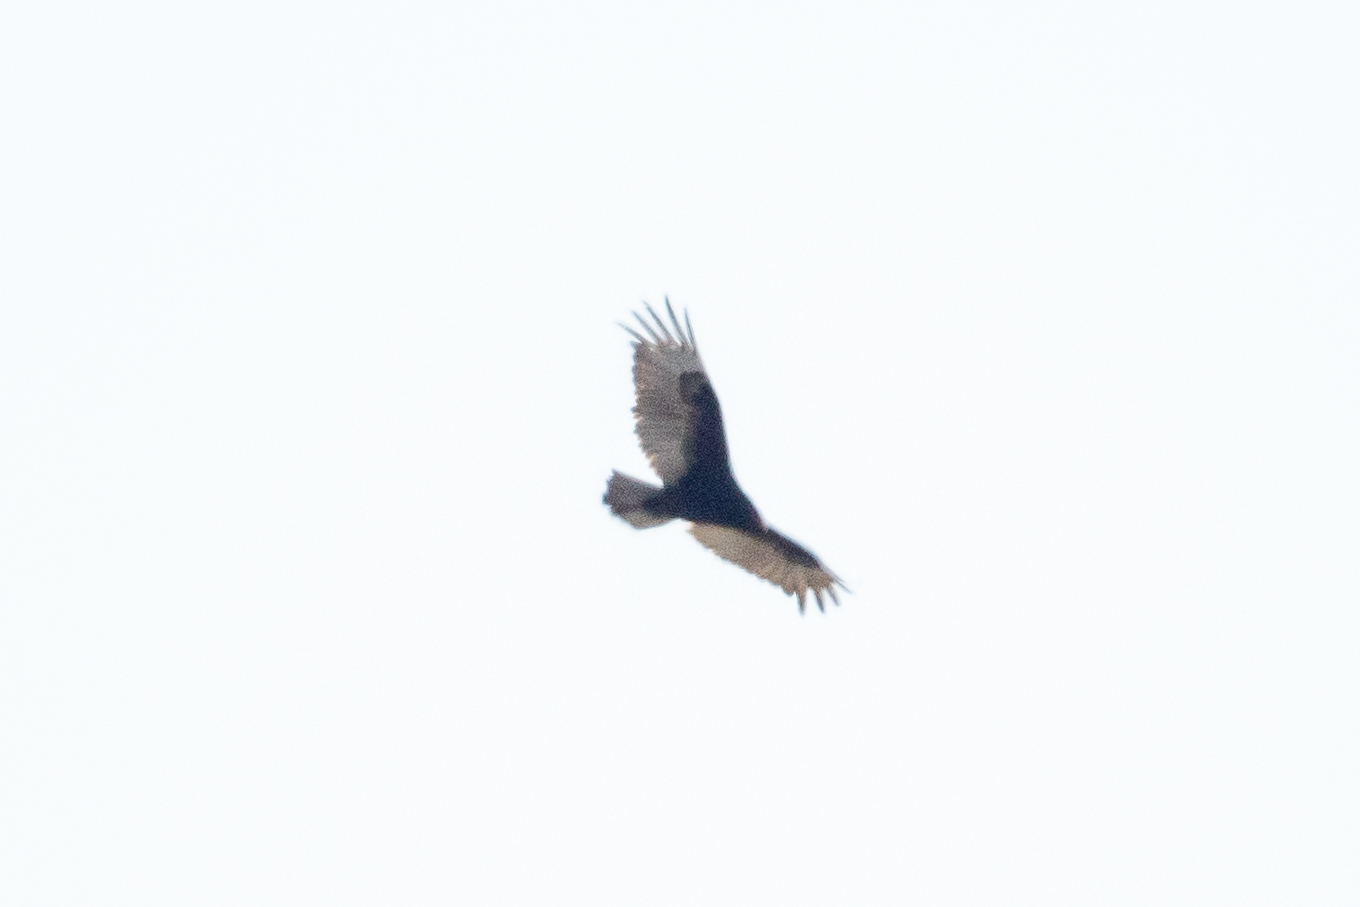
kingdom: Animalia
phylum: Chordata
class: Aves
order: Accipitriformes
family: Cathartidae
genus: Cathartes
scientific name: Cathartes aura
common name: Turkey vulture
